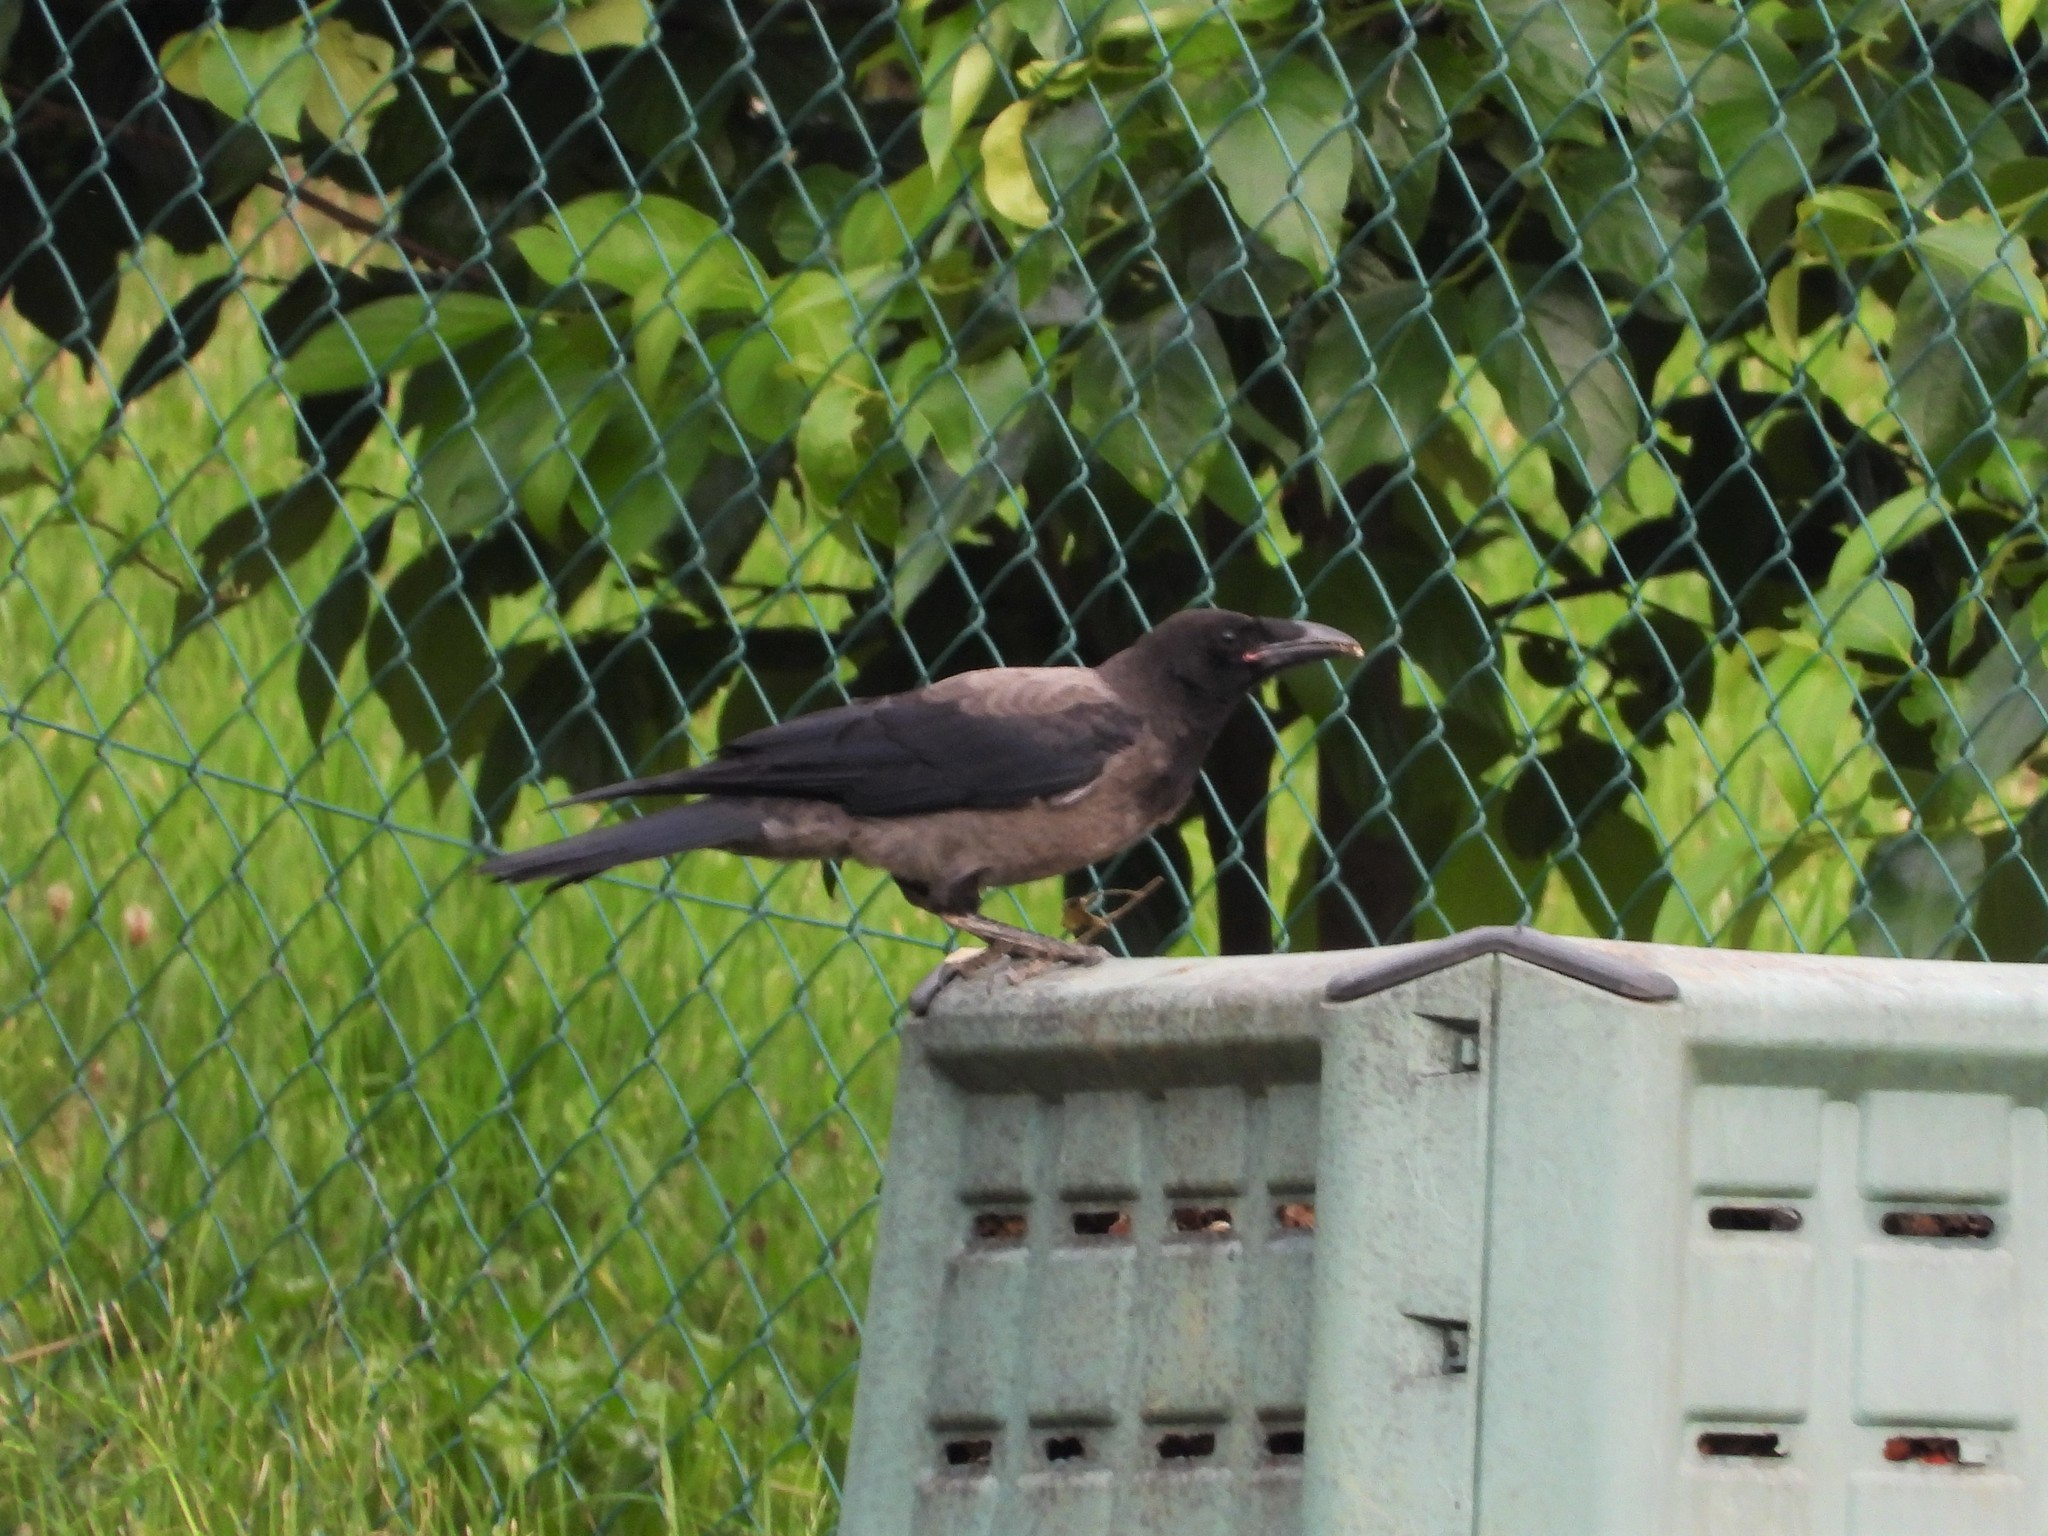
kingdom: Animalia
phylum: Chordata
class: Aves
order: Passeriformes
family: Corvidae
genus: Corvus
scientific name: Corvus cornix
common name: Hooded crow
